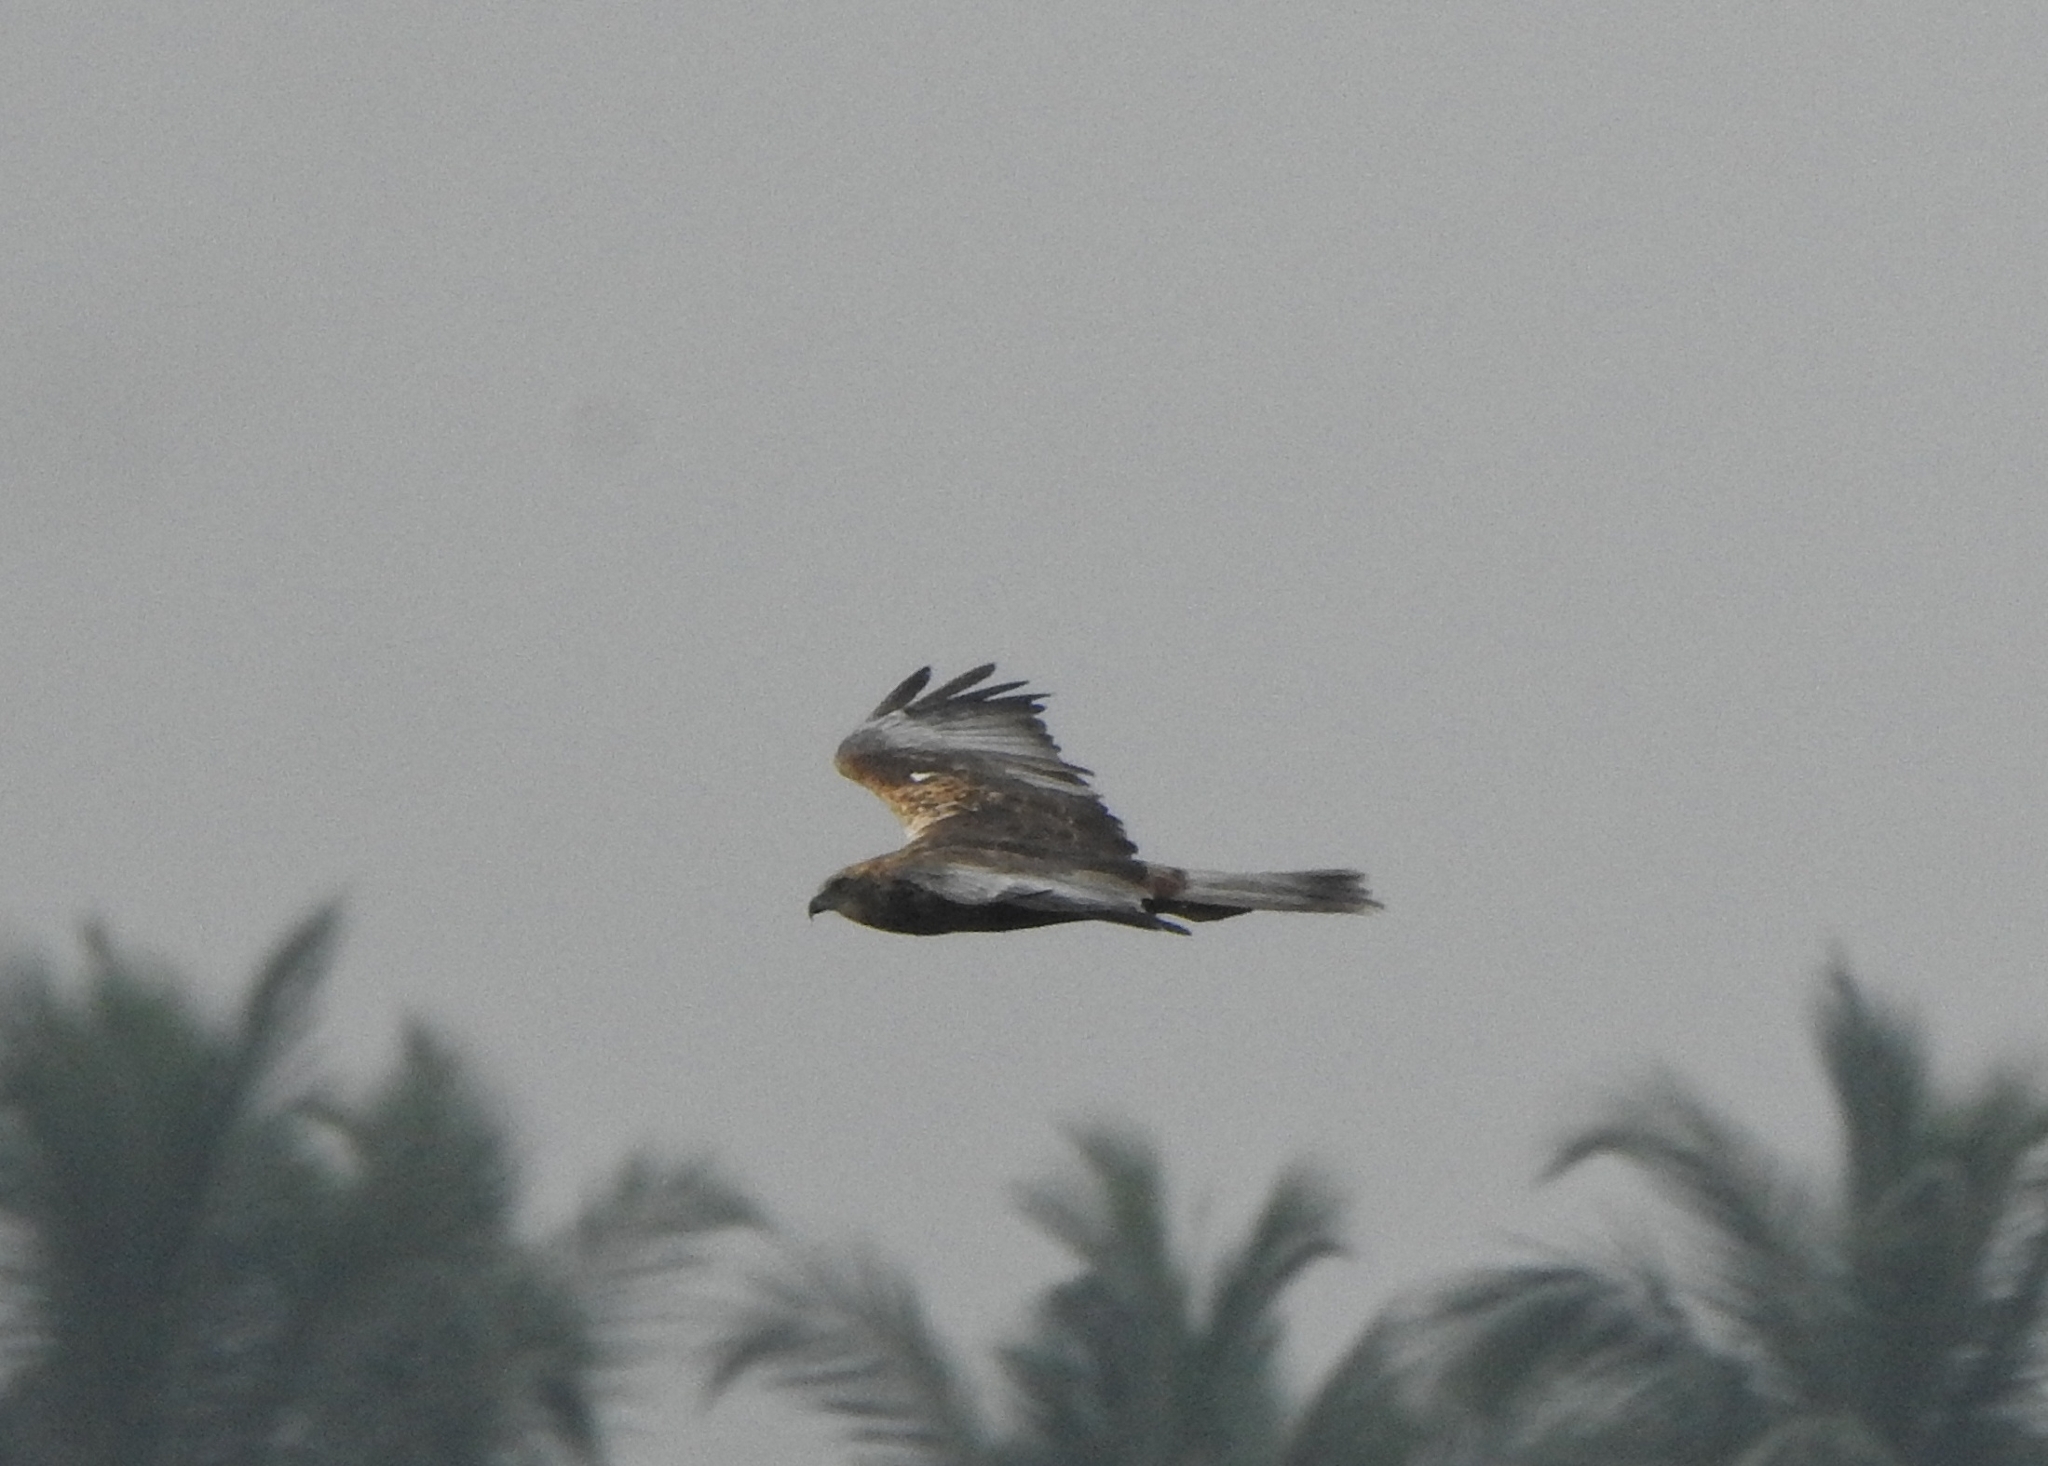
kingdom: Animalia
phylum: Chordata
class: Aves
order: Accipitriformes
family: Accipitridae
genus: Circus
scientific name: Circus aeruginosus
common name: Western marsh harrier
